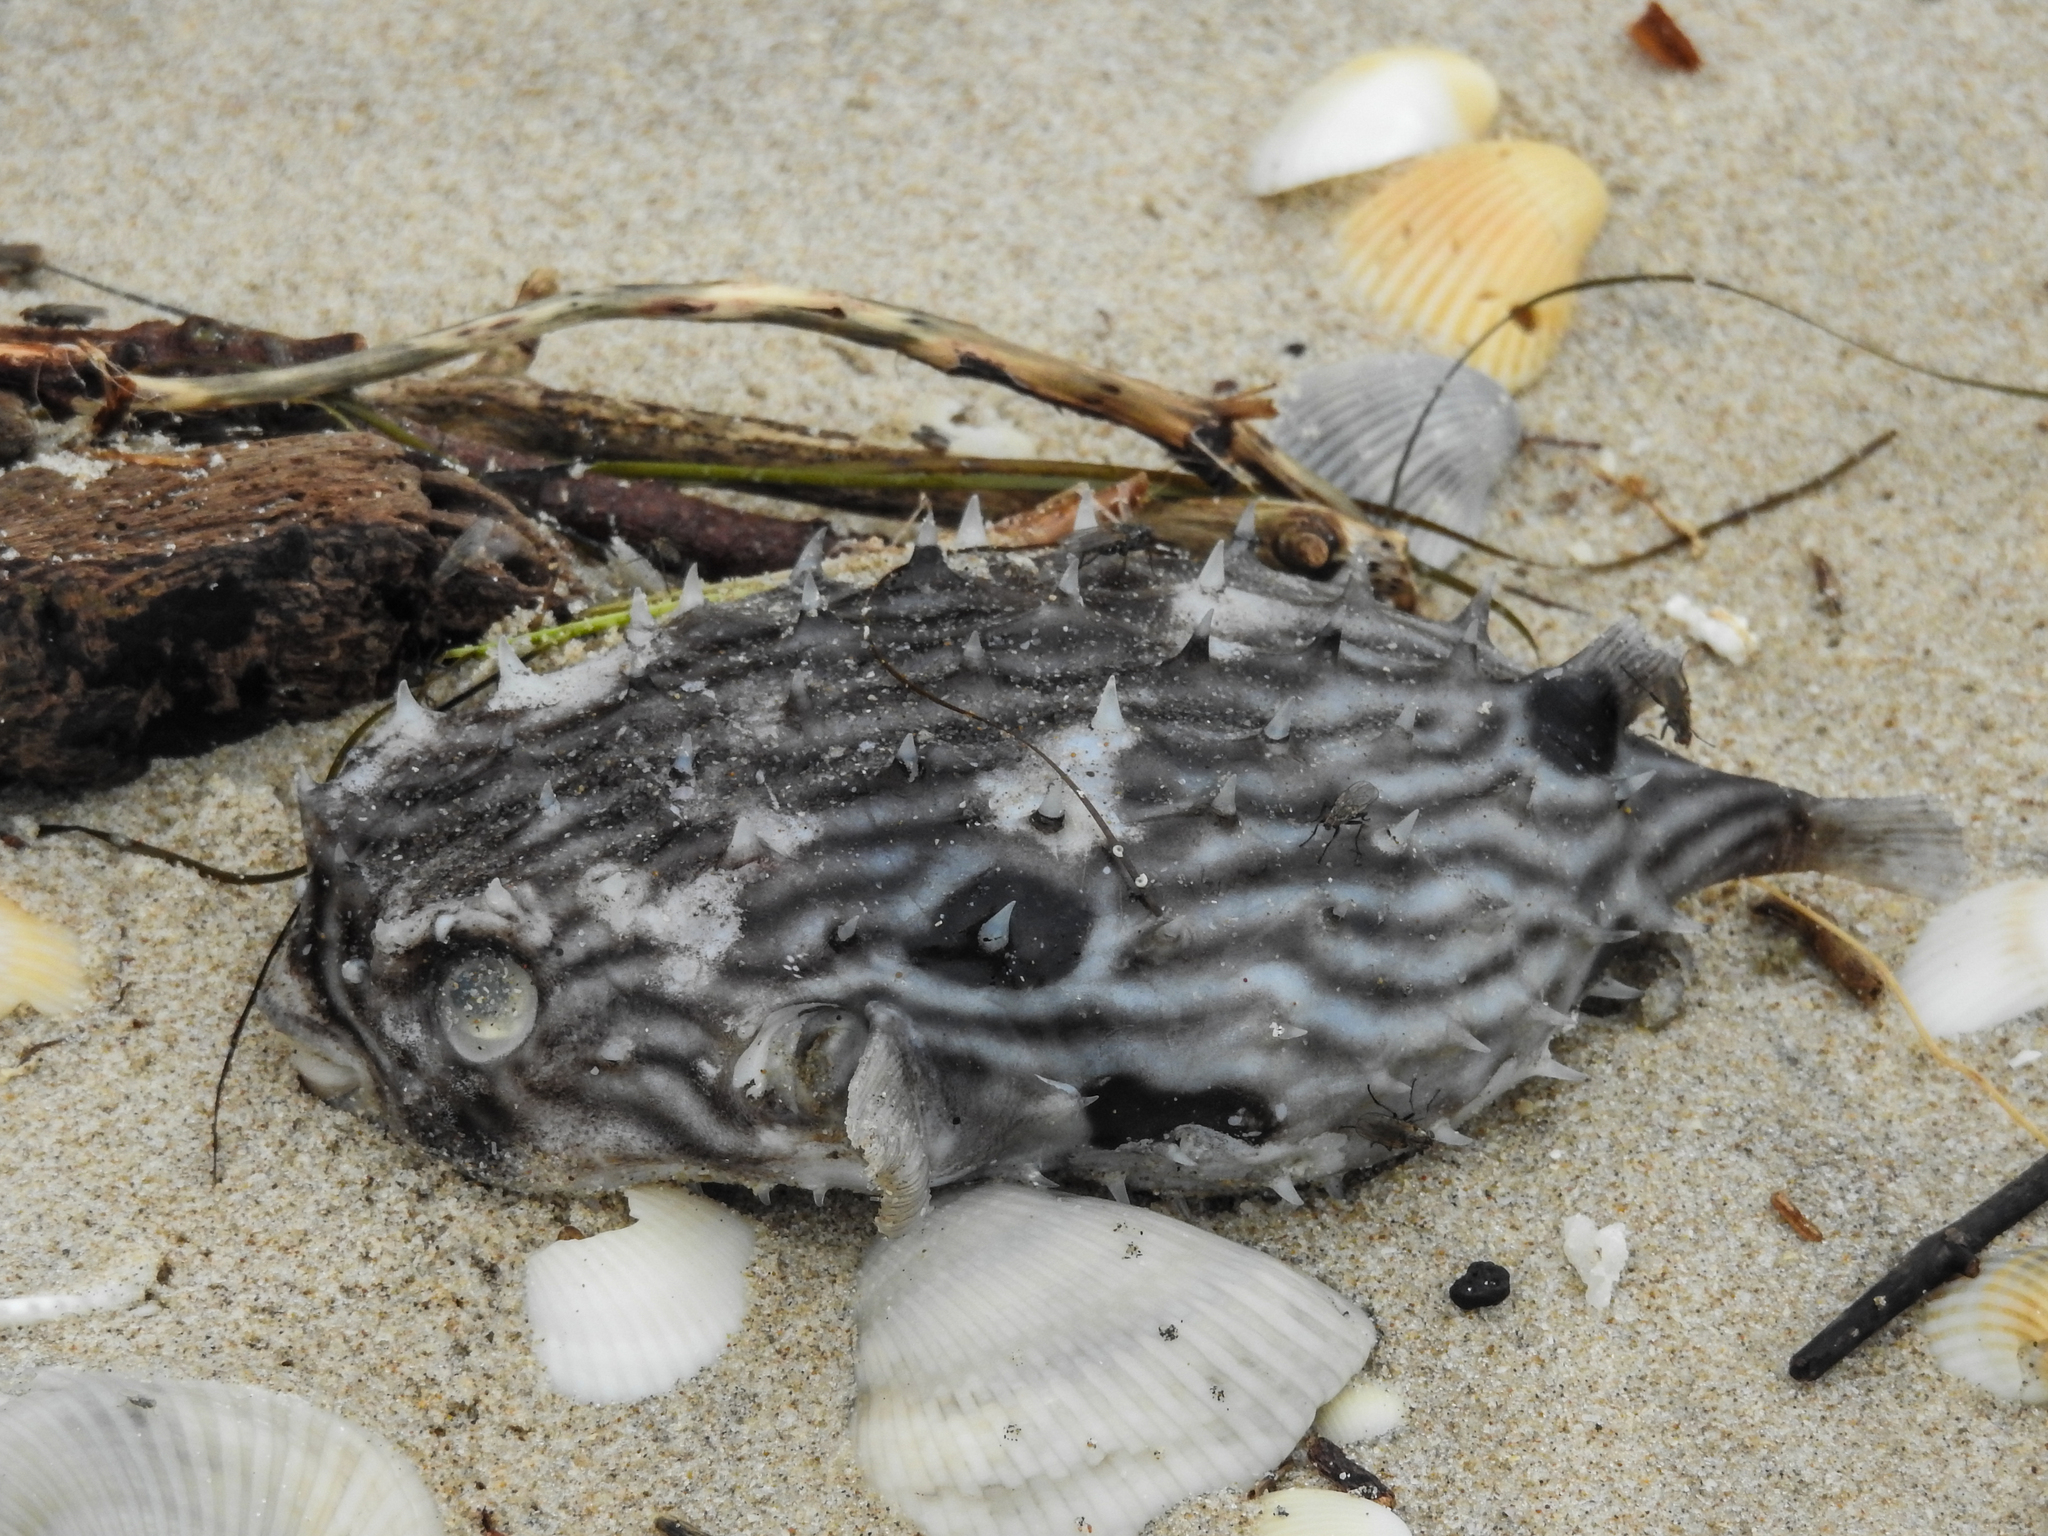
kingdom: Animalia
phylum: Chordata
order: Tetraodontiformes
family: Diodontidae
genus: Chilomycterus
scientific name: Chilomycterus schoepfii
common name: Striped burrfish
